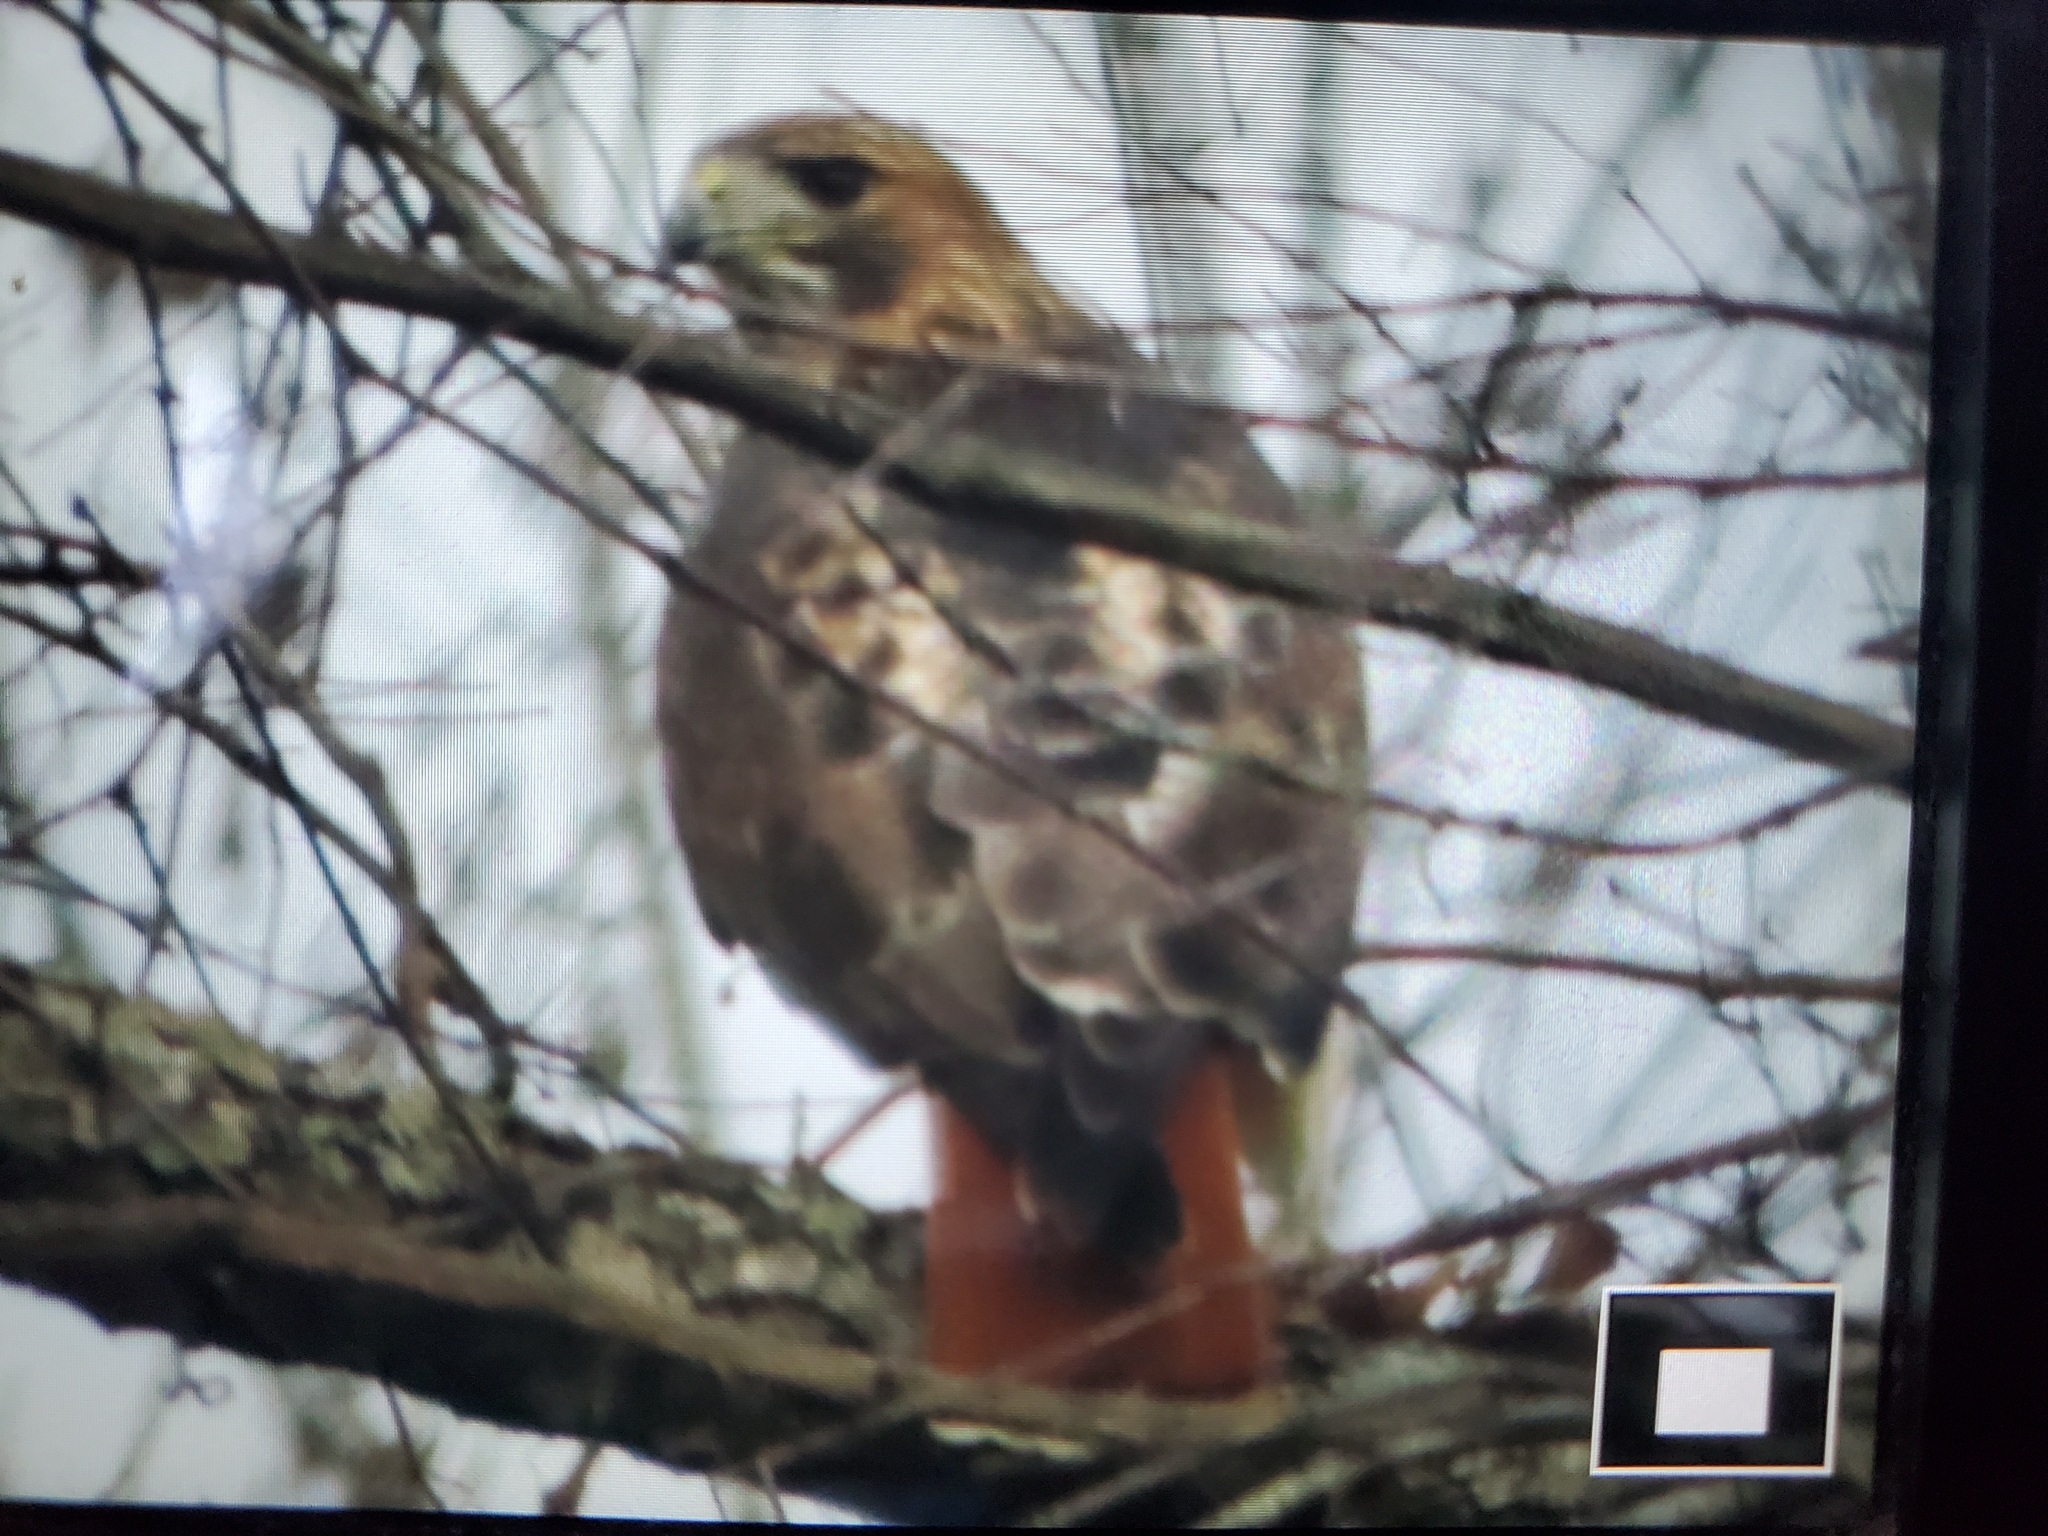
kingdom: Animalia
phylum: Chordata
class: Aves
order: Accipitriformes
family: Accipitridae
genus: Buteo
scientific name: Buteo jamaicensis
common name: Red-tailed hawk
